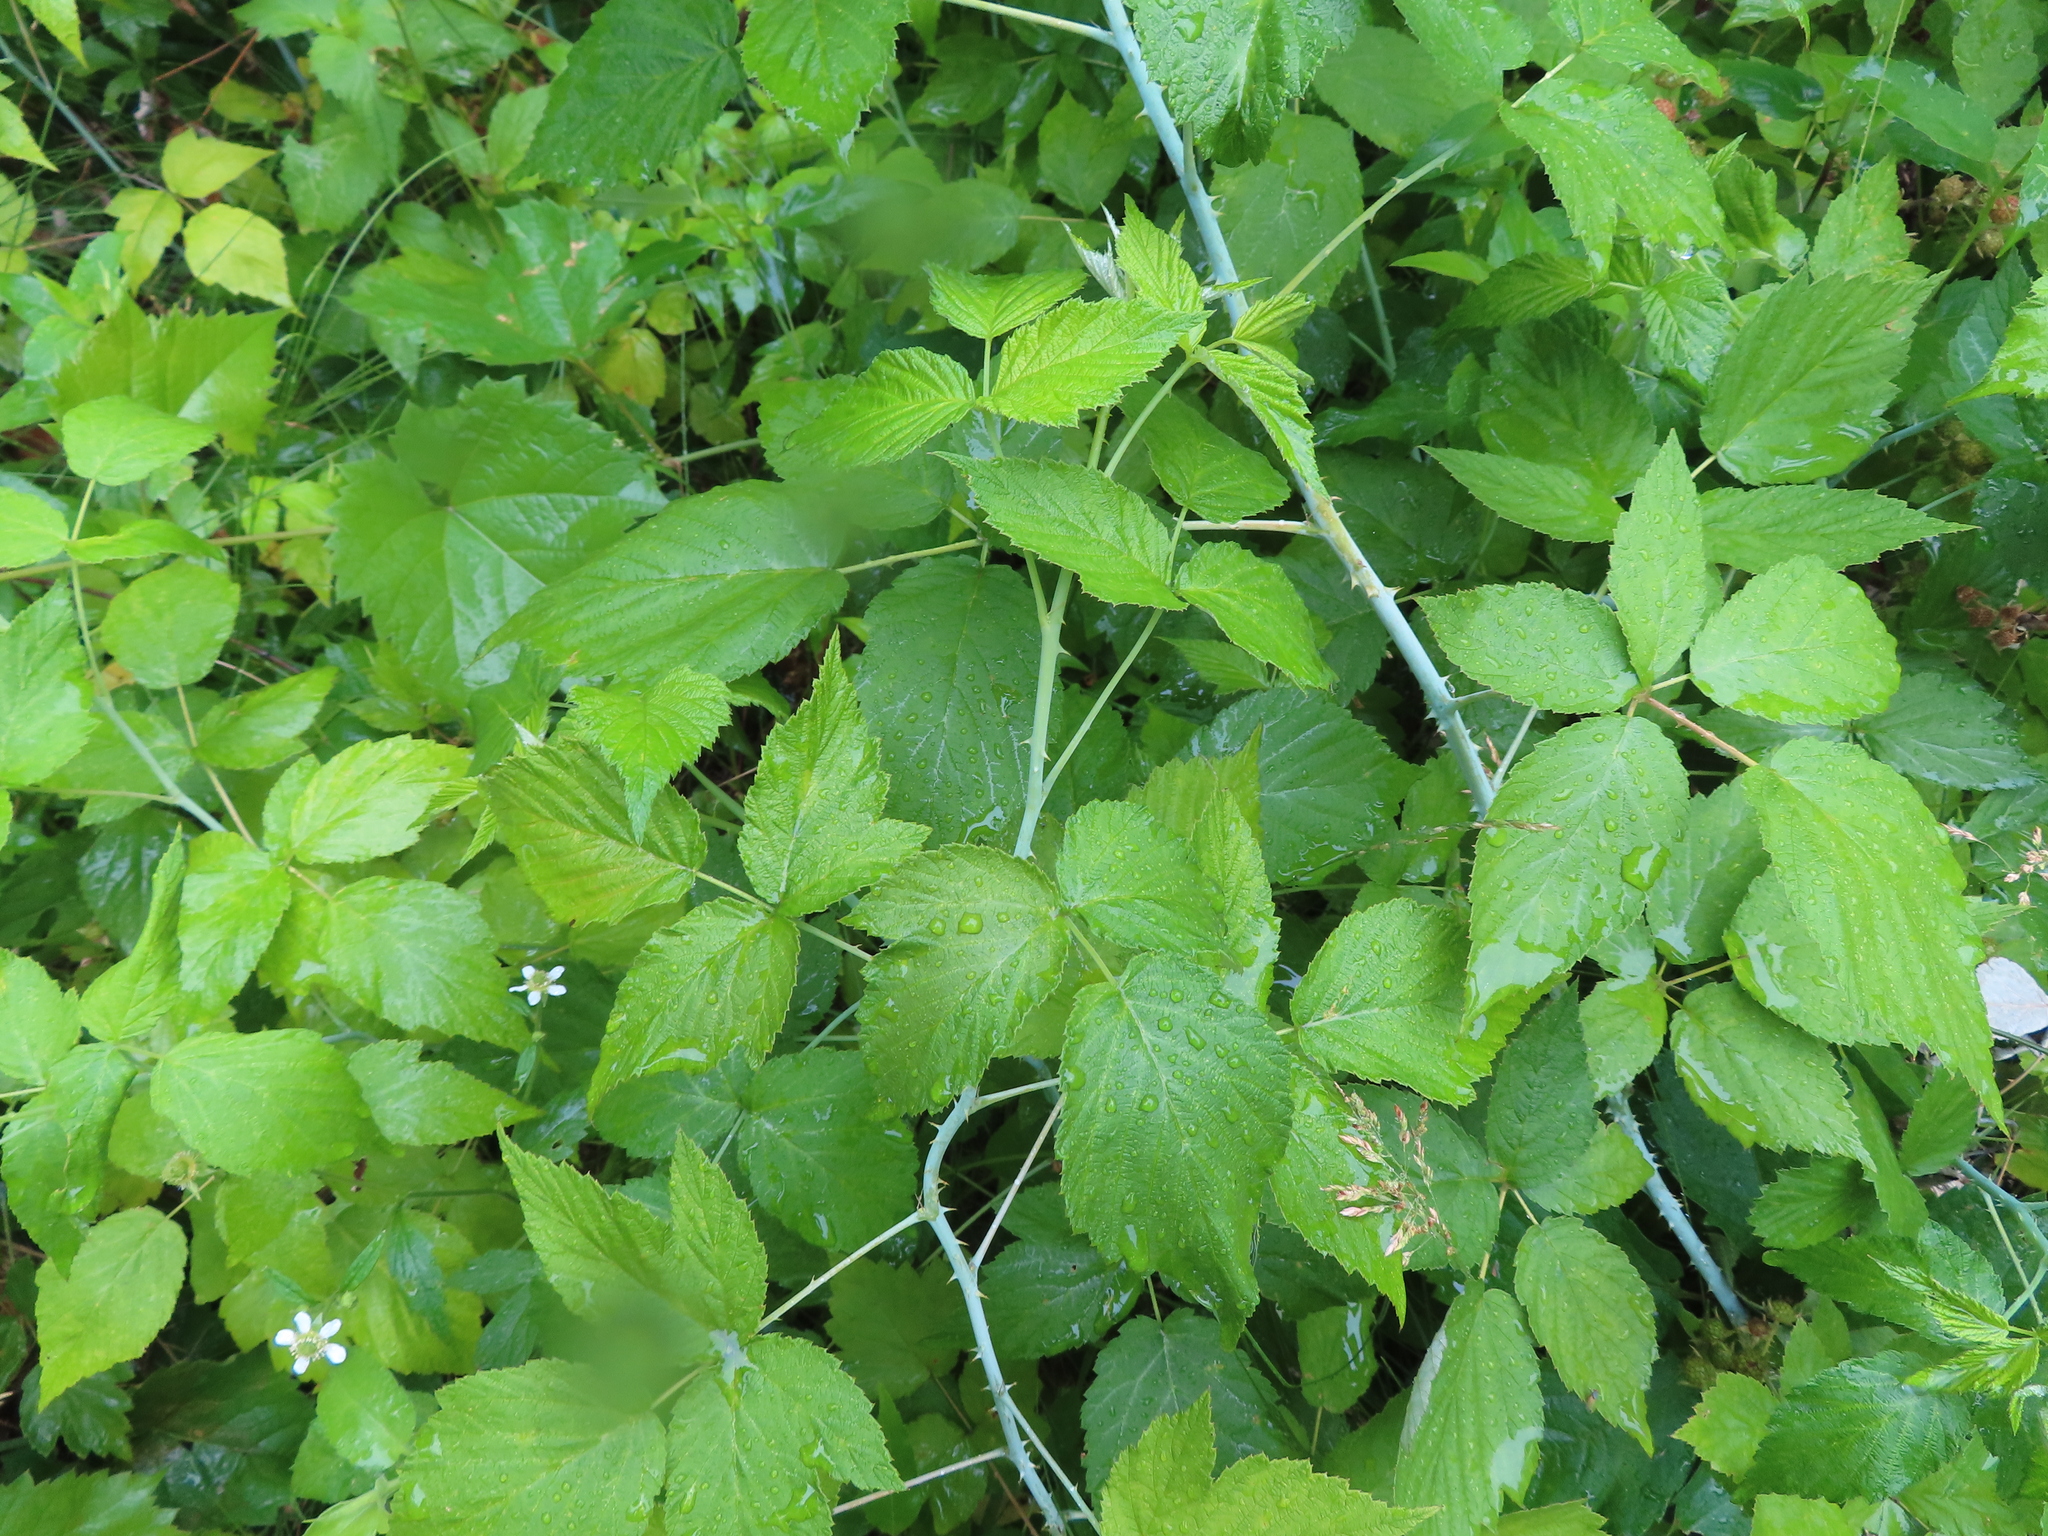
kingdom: Plantae
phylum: Tracheophyta
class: Magnoliopsida
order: Rosales
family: Rosaceae
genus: Rubus
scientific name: Rubus occidentalis
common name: Black raspberry
